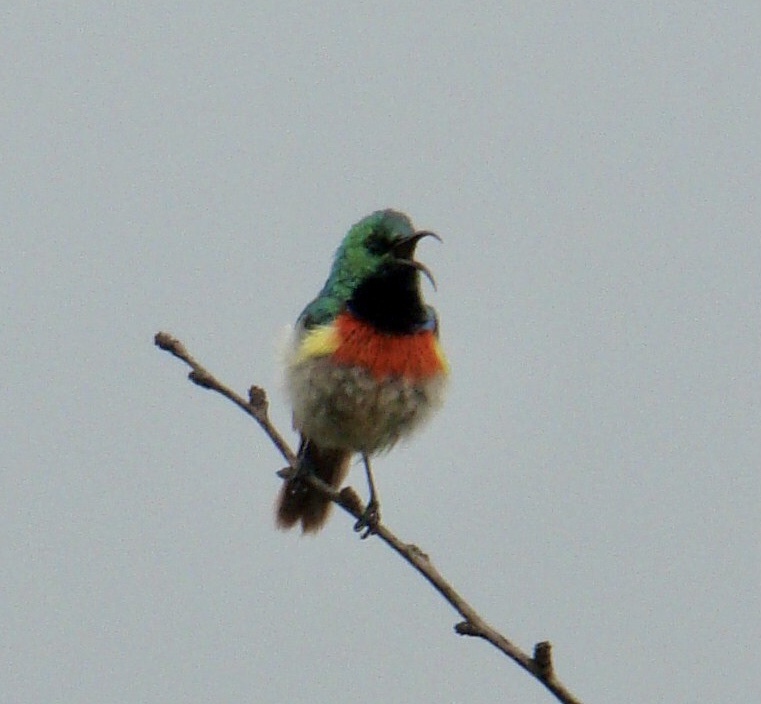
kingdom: Animalia
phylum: Chordata
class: Aves
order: Passeriformes
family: Nectariniidae
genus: Cinnyris
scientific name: Cinnyris mediocris
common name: Eastern double-collared sunbird
